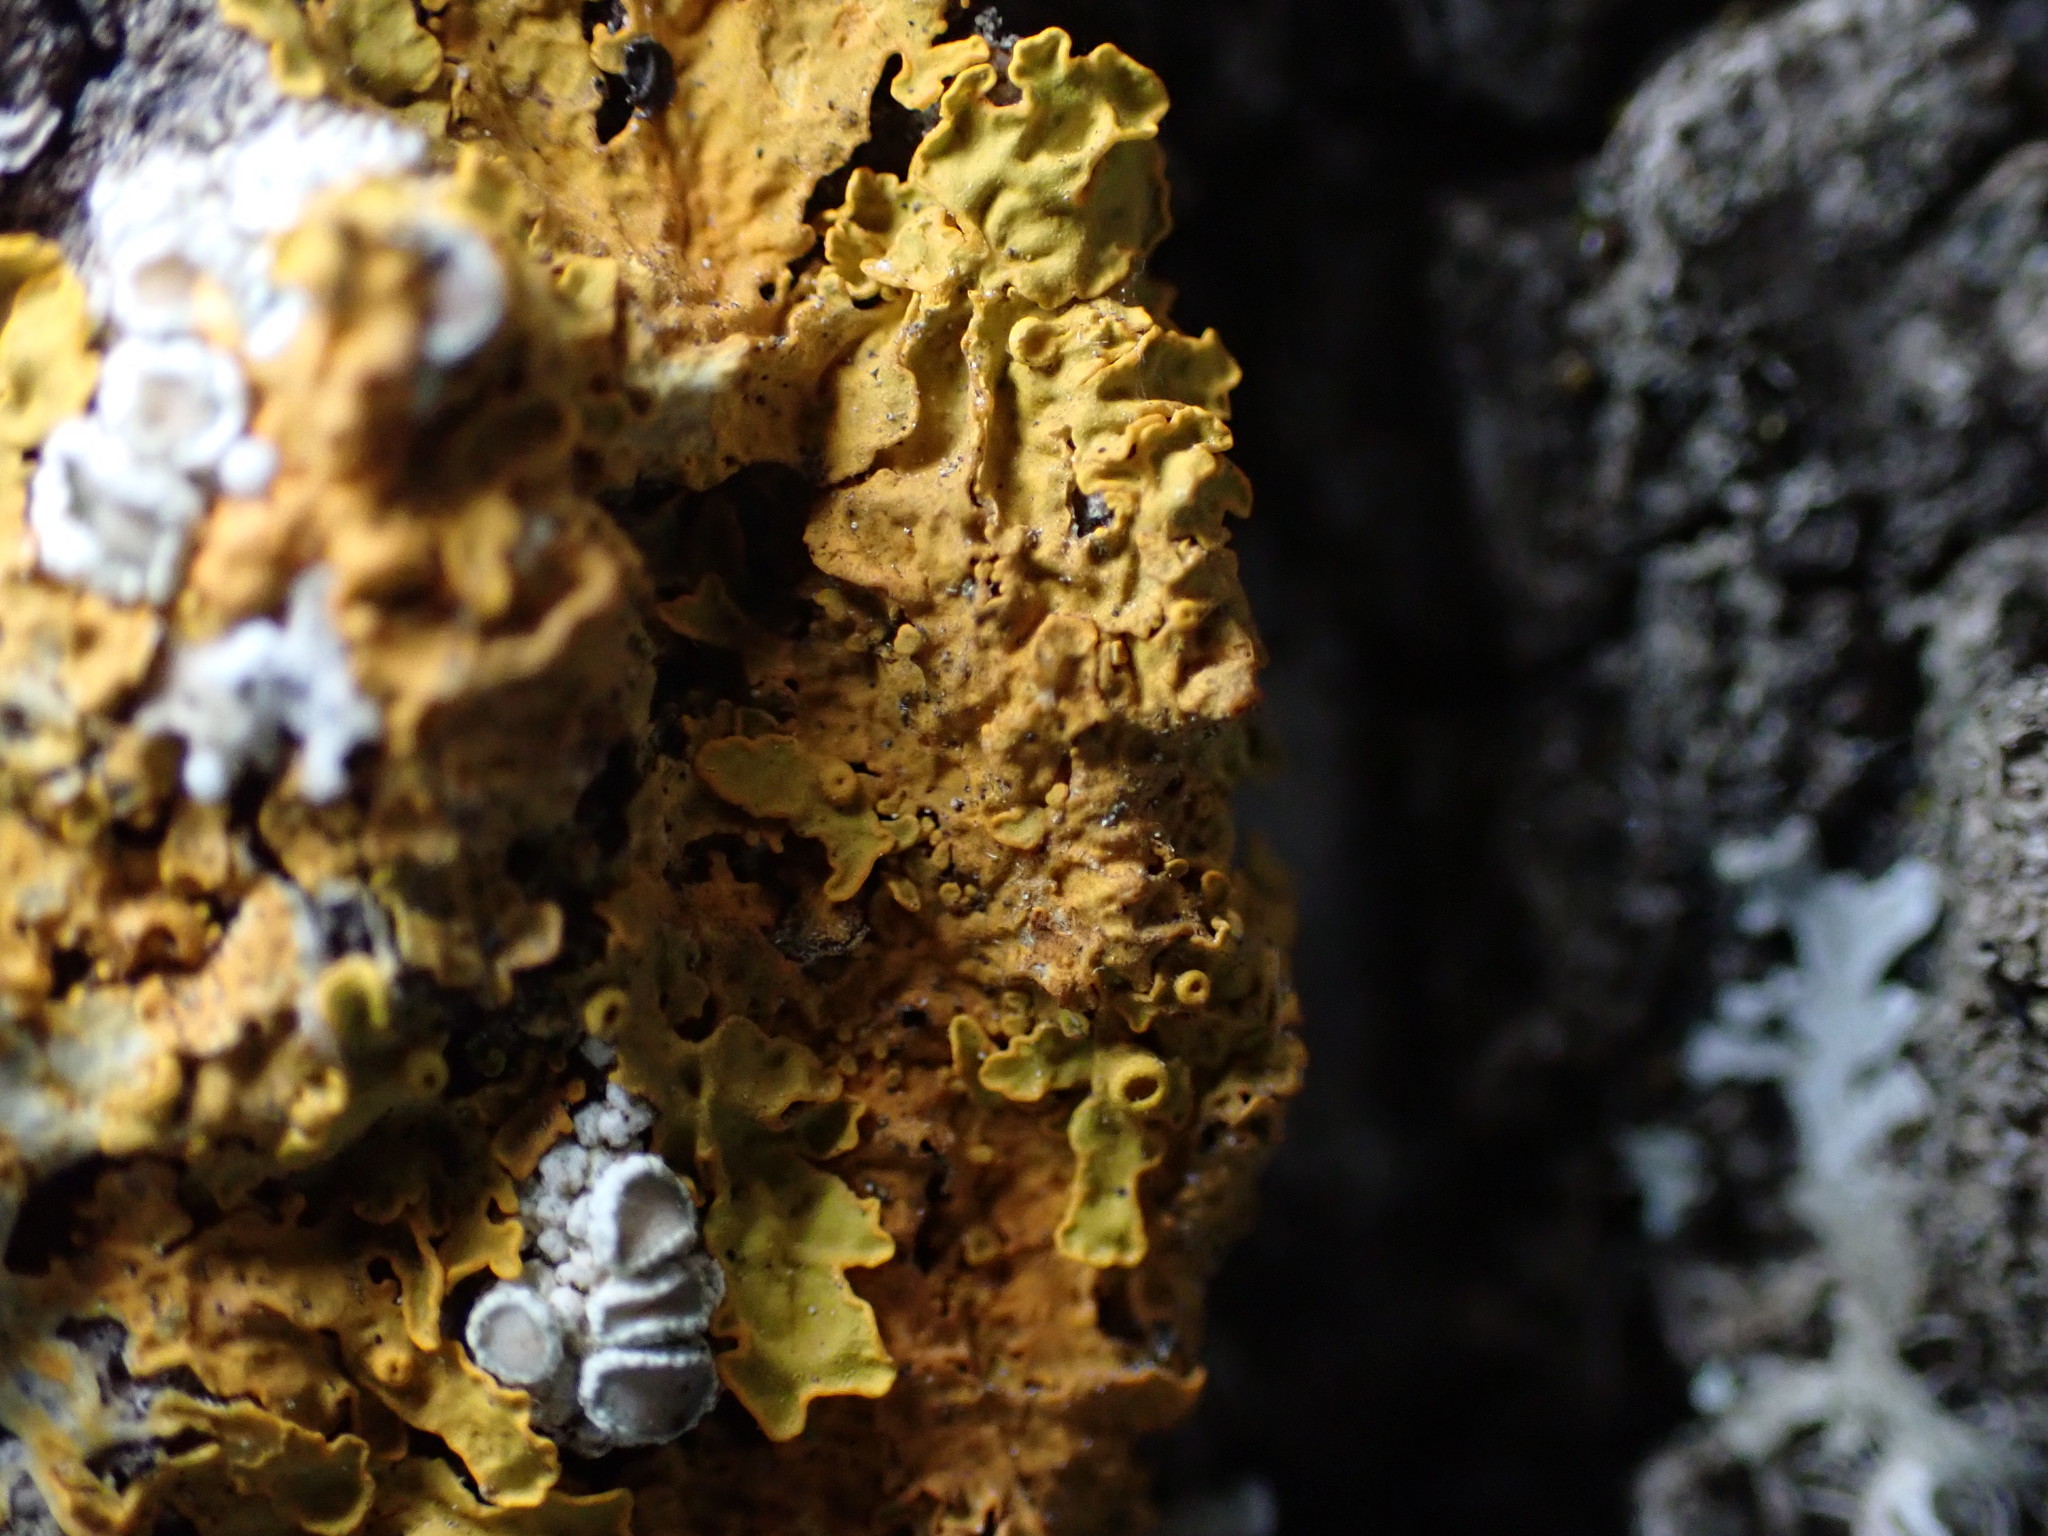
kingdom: Fungi
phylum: Ascomycota
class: Lecanoromycetes
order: Teloschistales
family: Teloschistaceae
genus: Xanthoria
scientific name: Xanthoria parietina
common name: Common orange lichen
